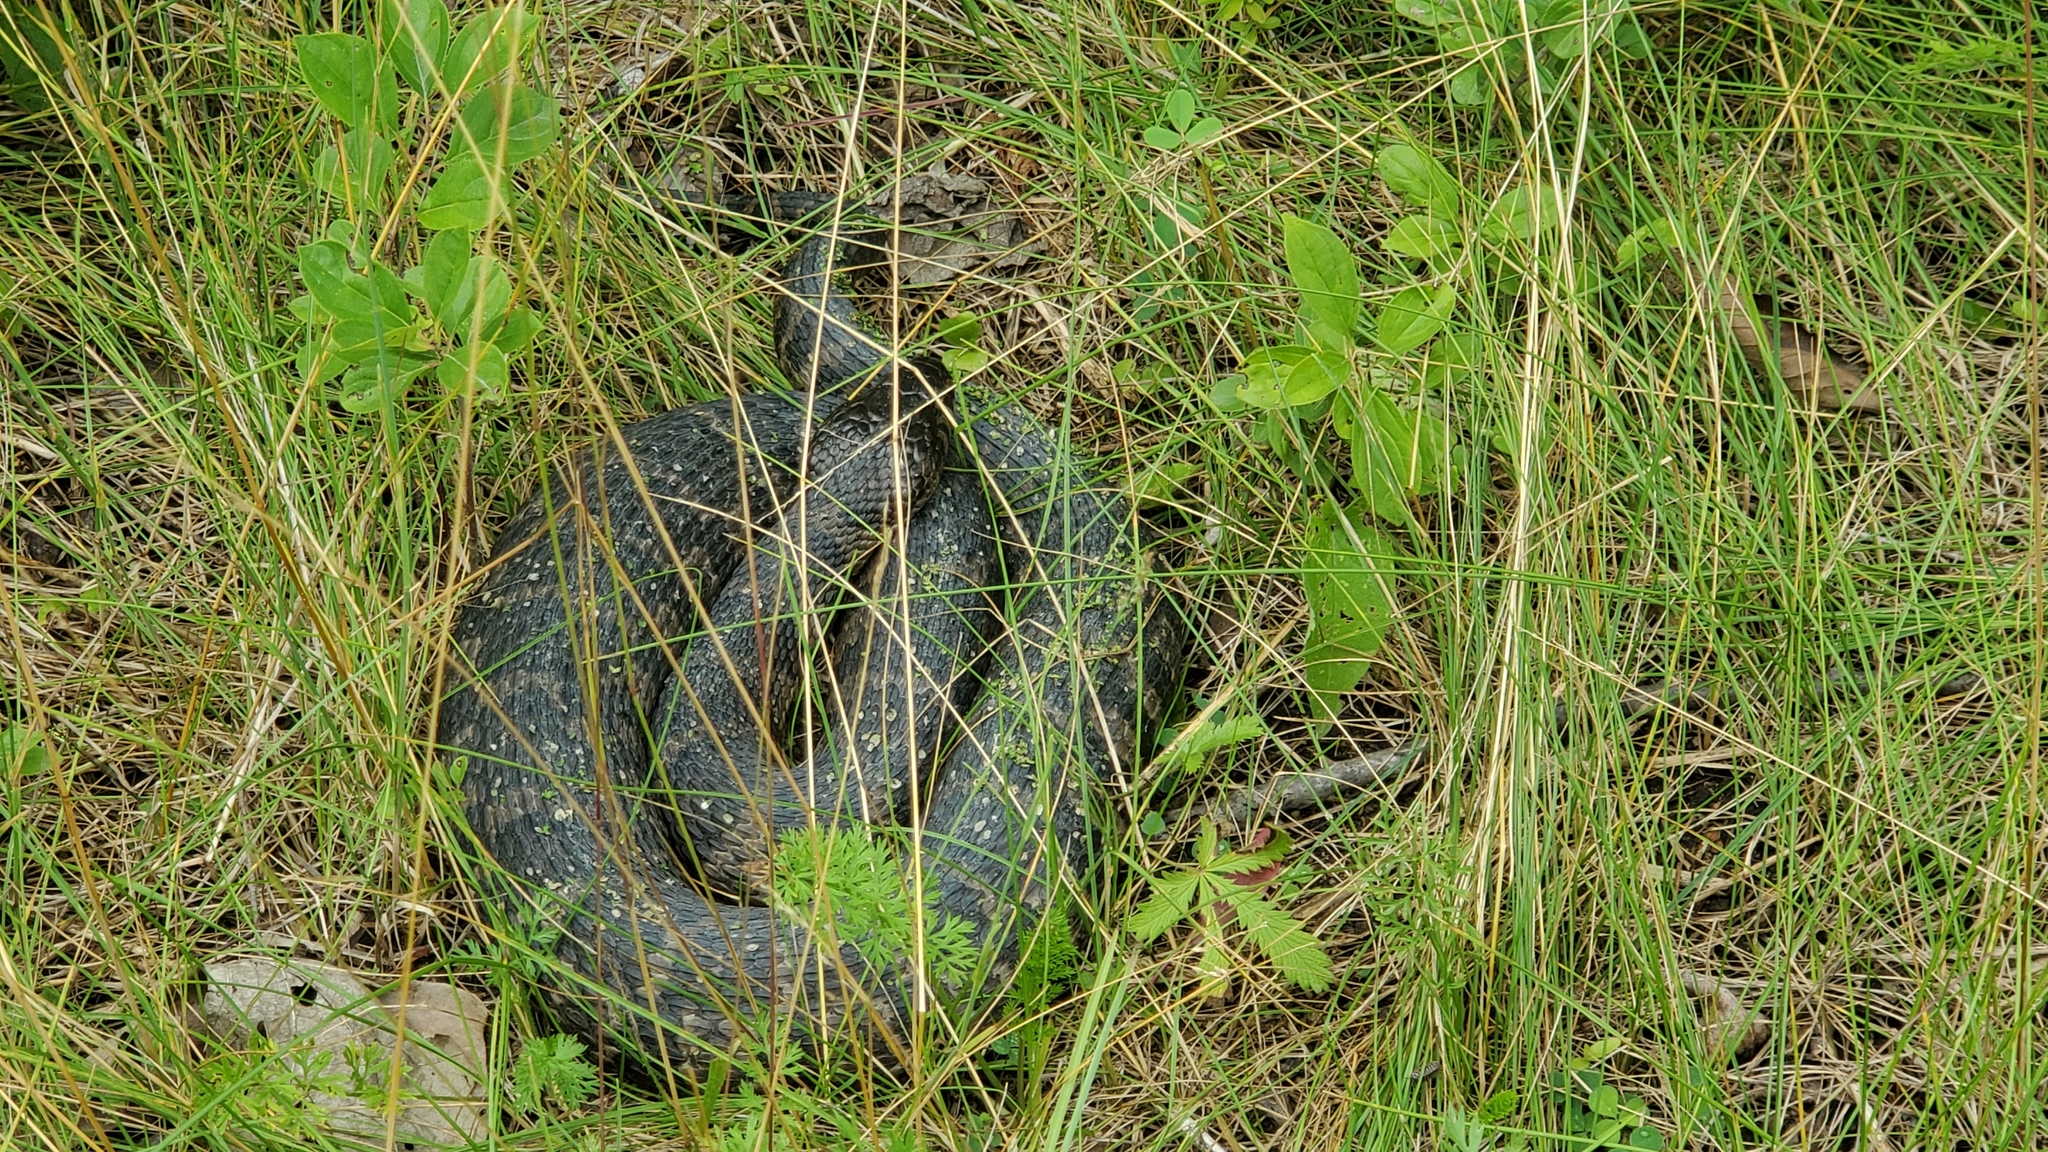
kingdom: Animalia
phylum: Chordata
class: Squamata
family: Colubridae
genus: Nerodia
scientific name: Nerodia sipedon
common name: Northern water snake
